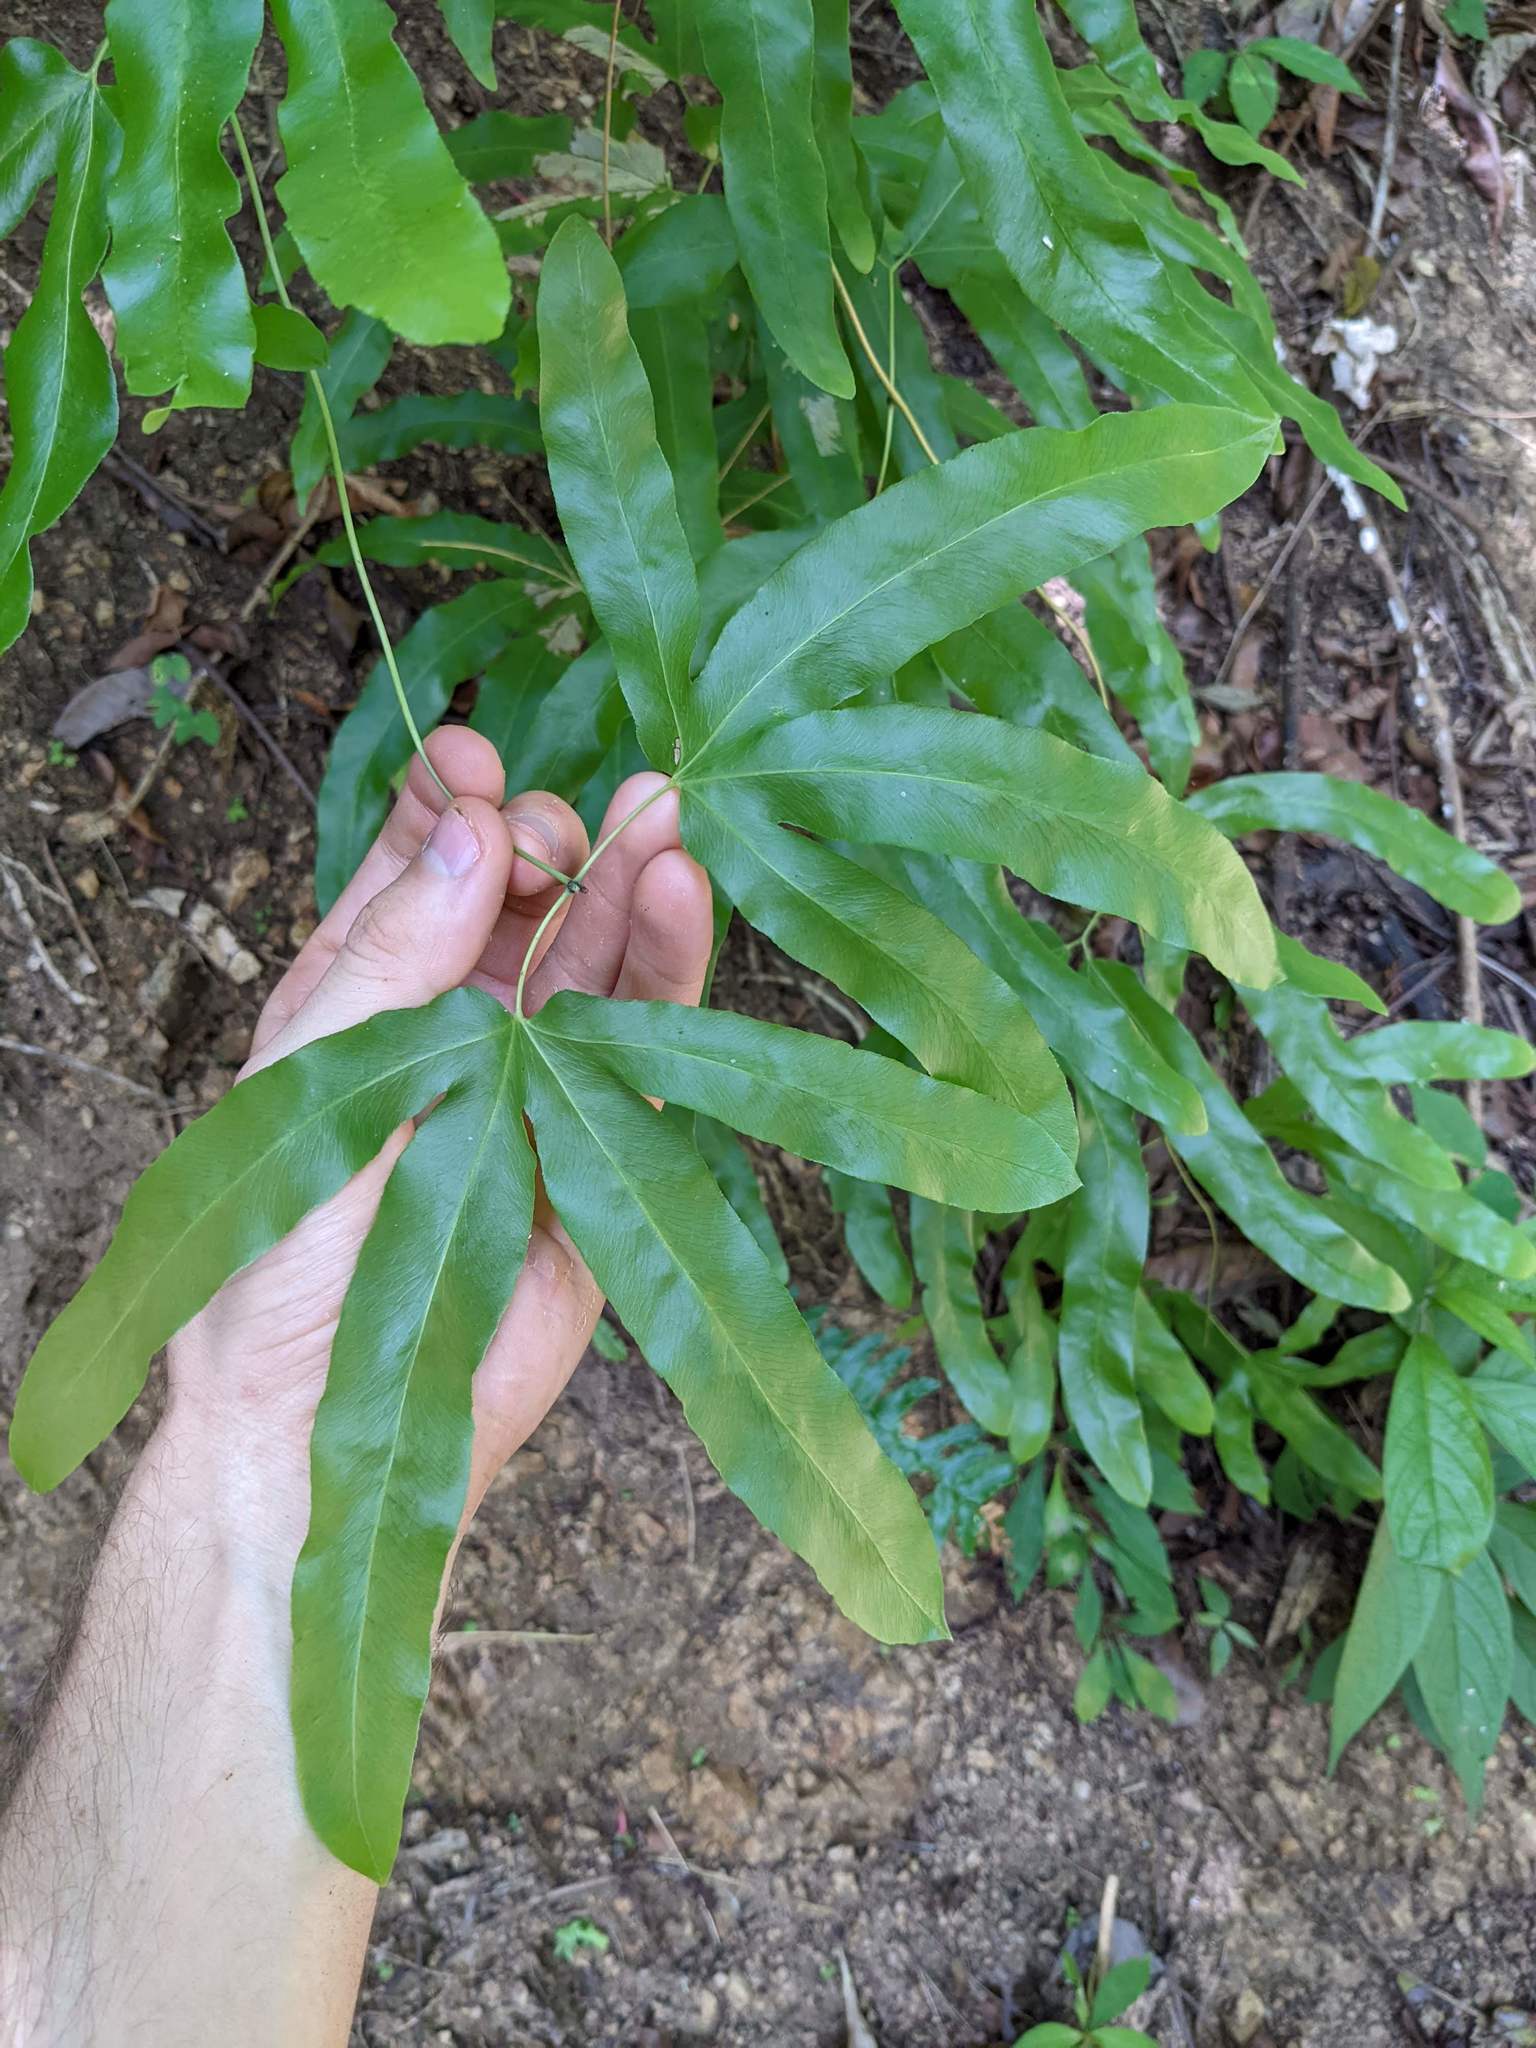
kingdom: Plantae
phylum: Tracheophyta
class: Polypodiopsida
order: Schizaeales
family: Lygodiaceae
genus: Lygodium
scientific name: Lygodium heterodoxum
